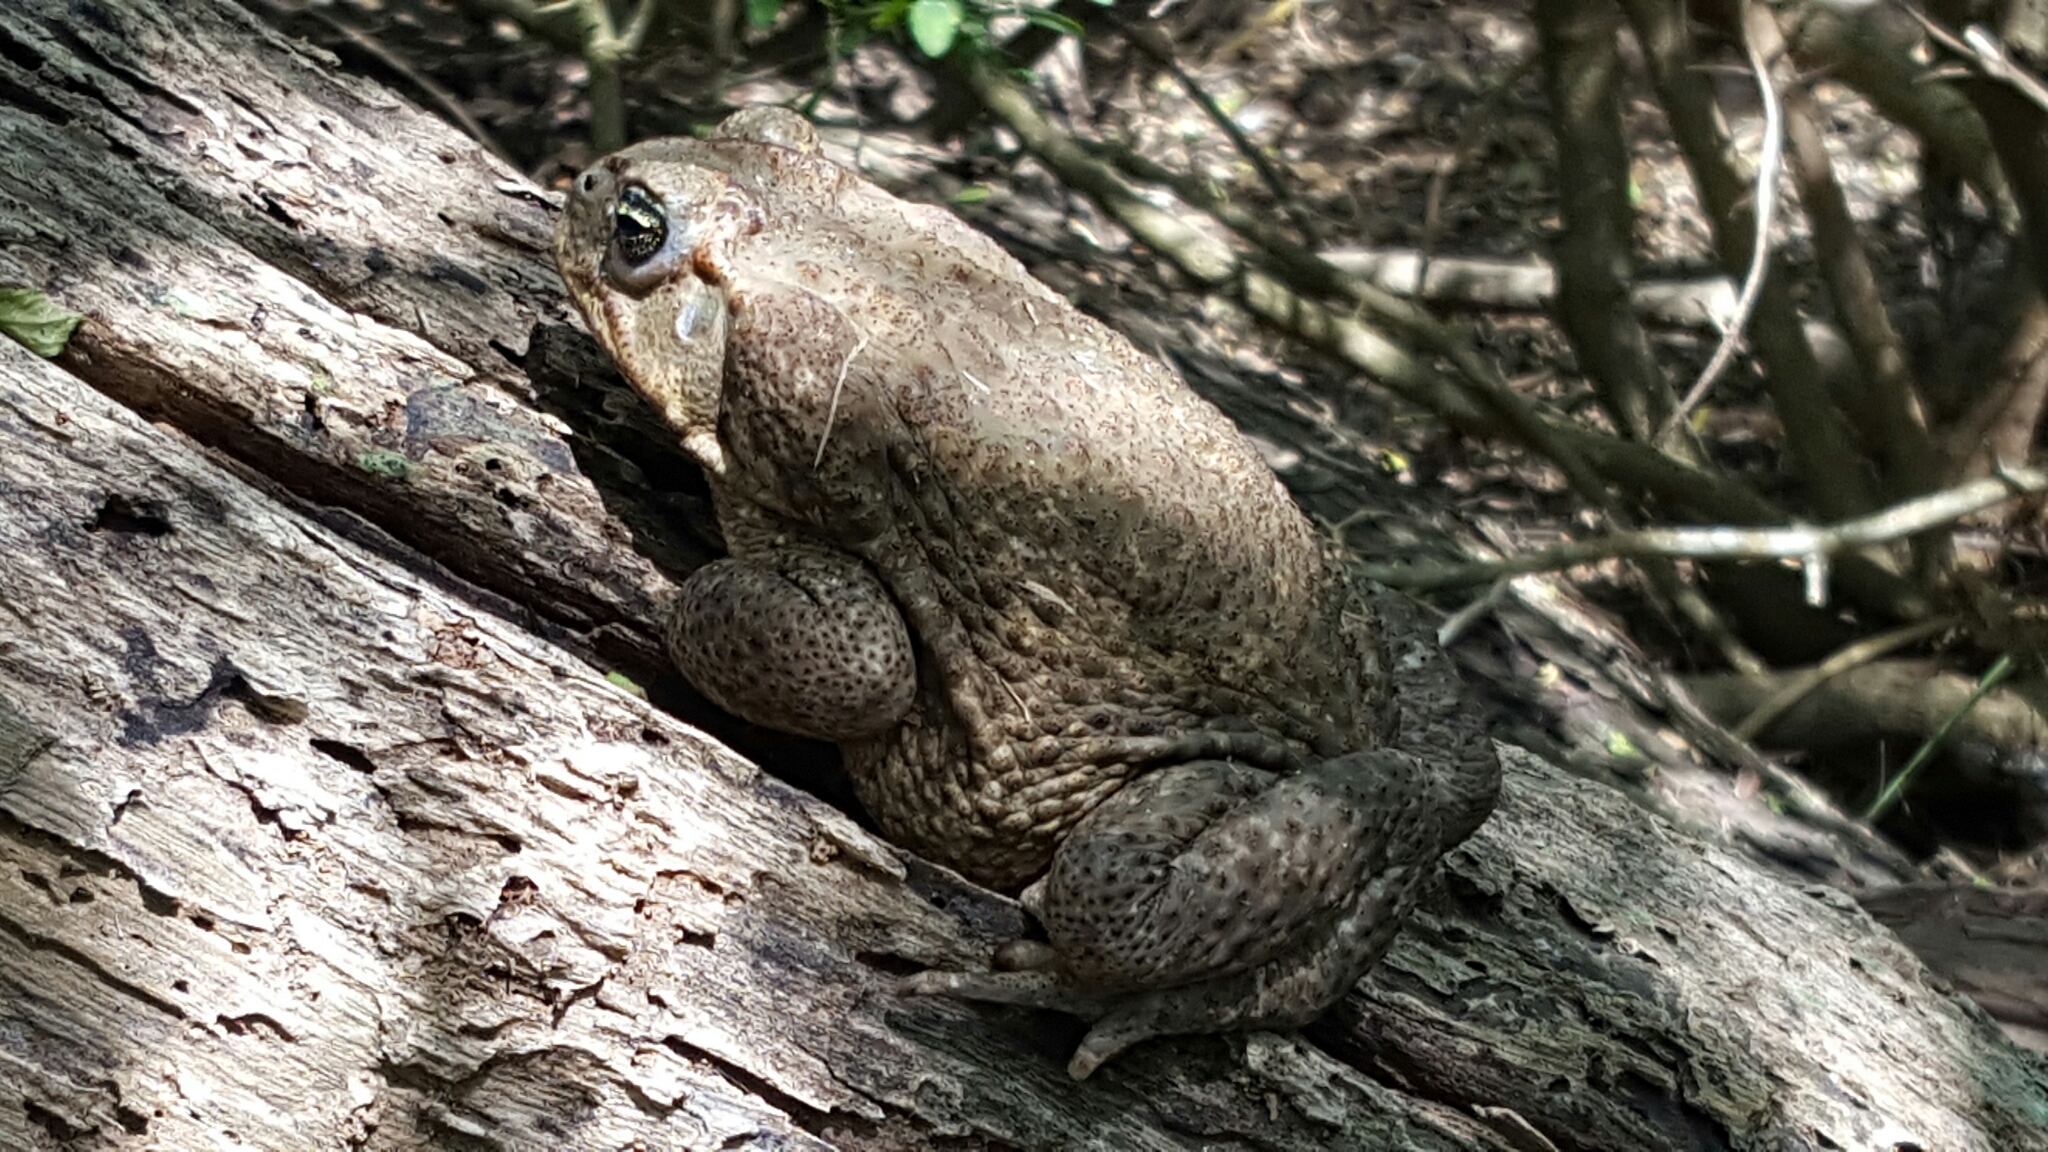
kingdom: Animalia
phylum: Chordata
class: Amphibia
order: Anura
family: Bufonidae
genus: Rhinella
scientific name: Rhinella horribilis
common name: Mesoamerican cane toad
